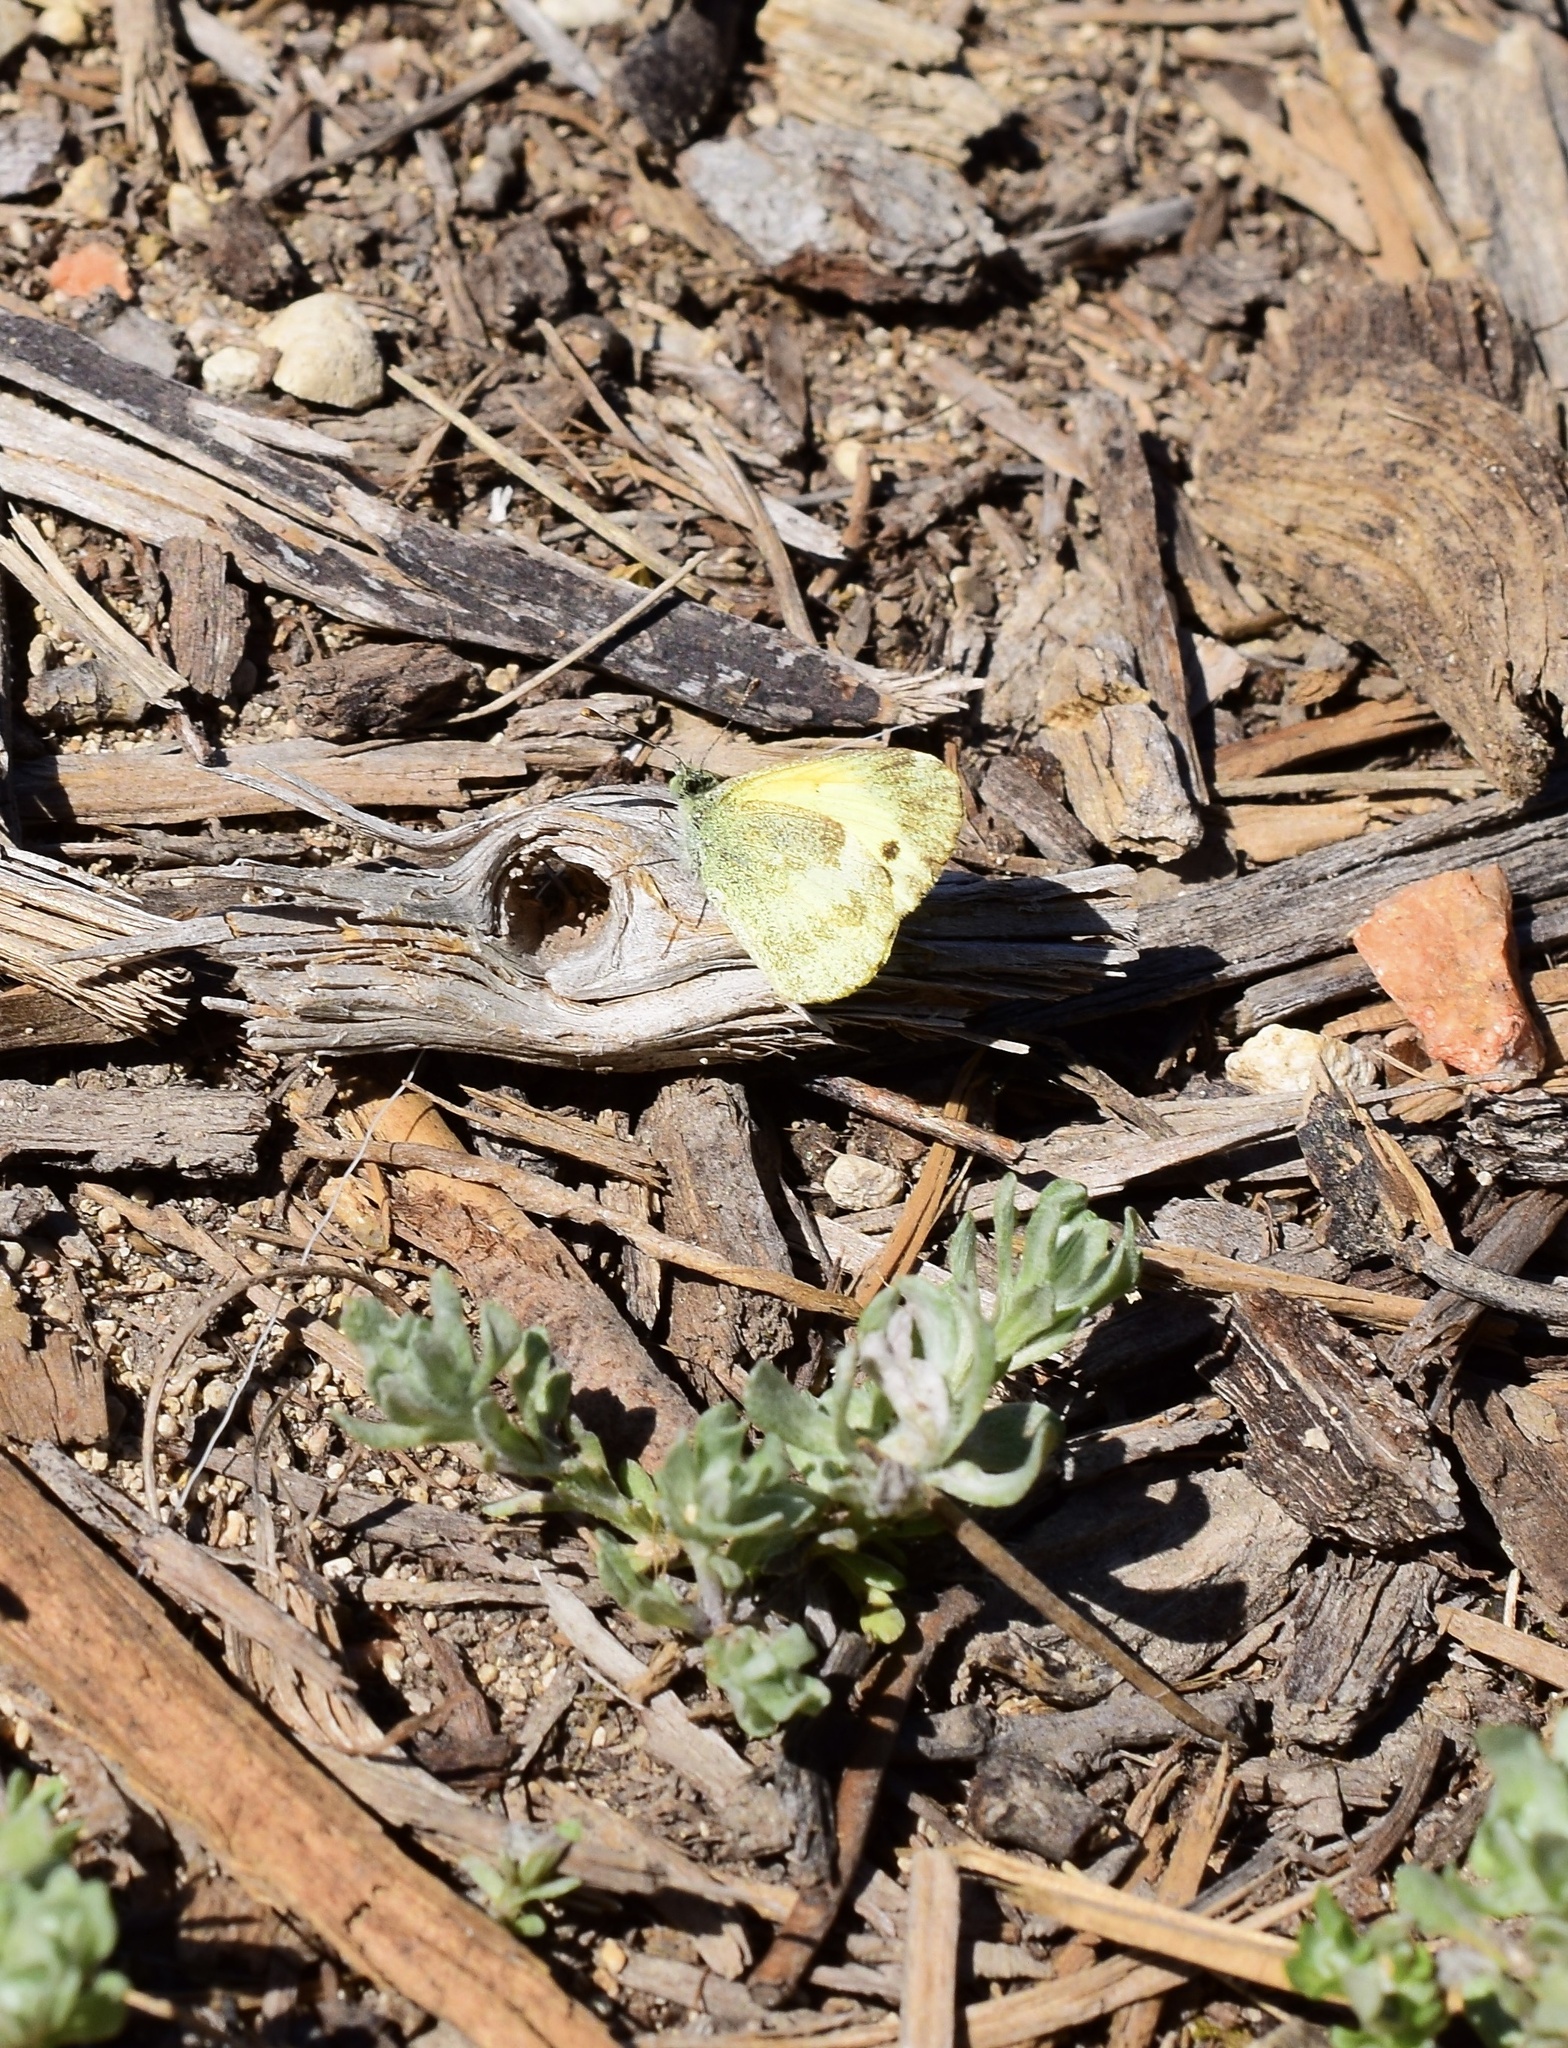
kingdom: Animalia
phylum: Arthropoda
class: Insecta
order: Lepidoptera
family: Pieridae
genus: Nathalis
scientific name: Nathalis iole
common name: Dainty sulphur
